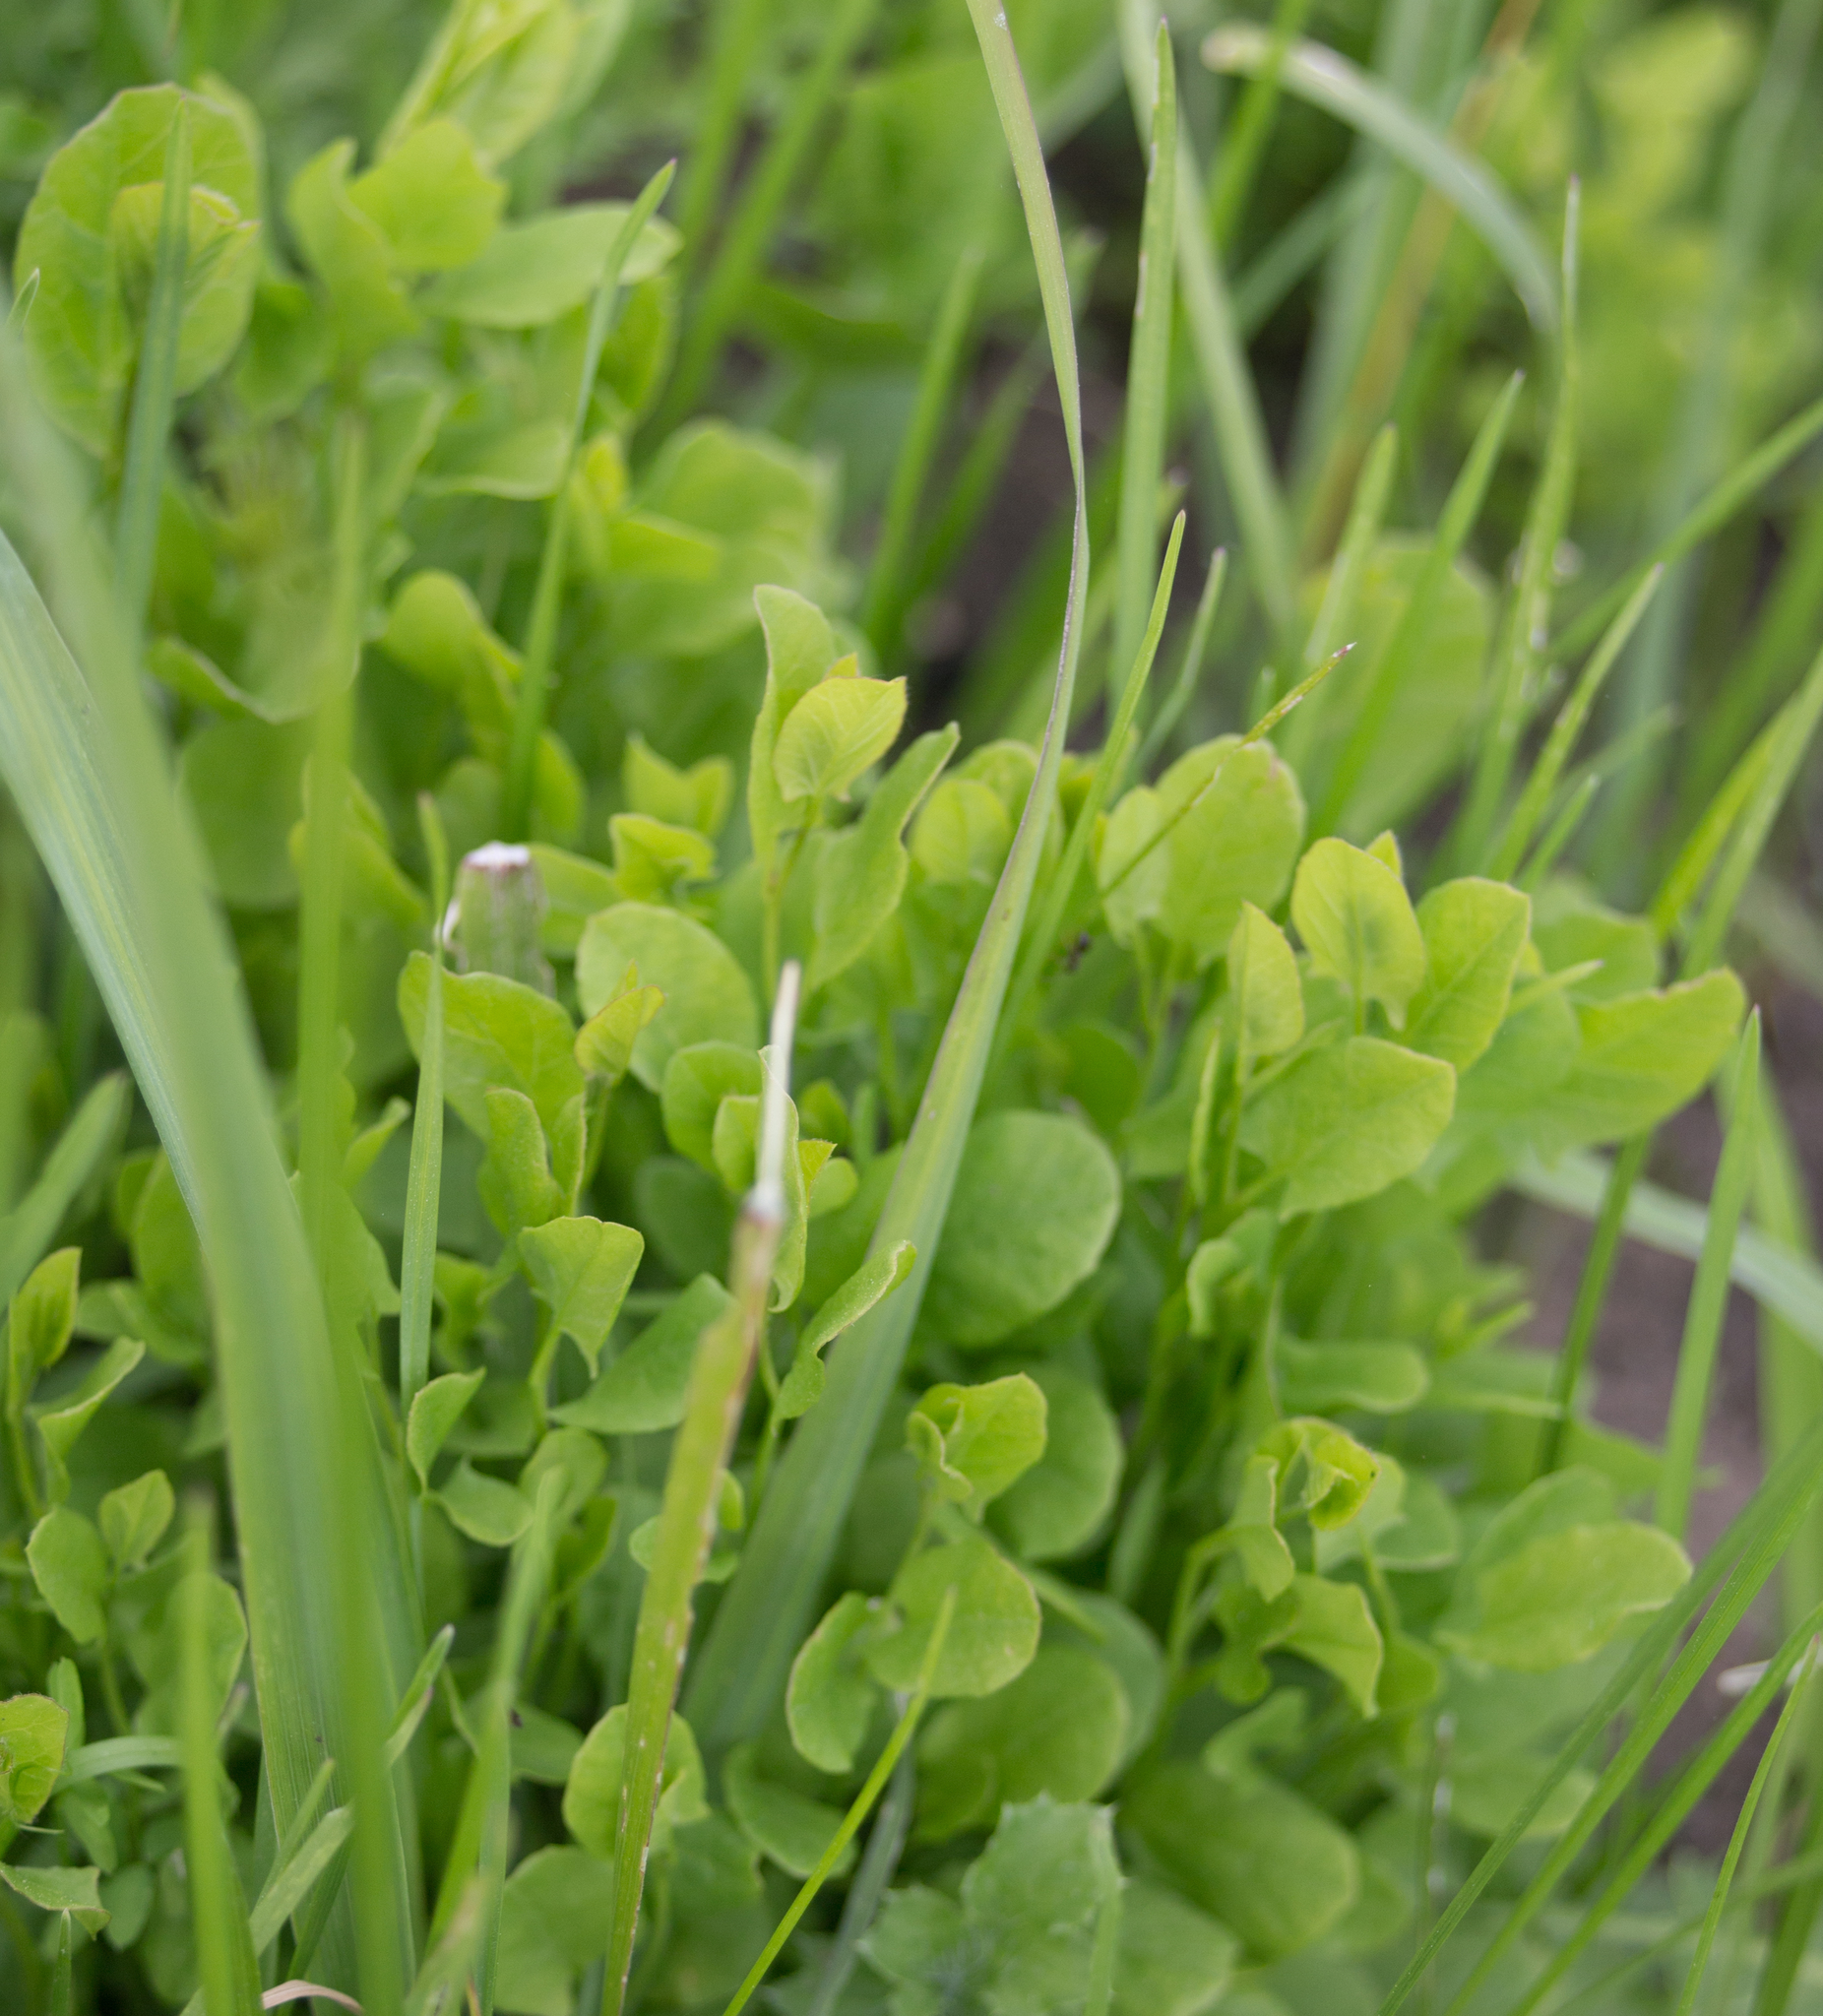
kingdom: Plantae
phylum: Tracheophyta
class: Magnoliopsida
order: Solanales
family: Convolvulaceae
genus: Convolvulus
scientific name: Convolvulus arvensis
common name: Field bindweed
